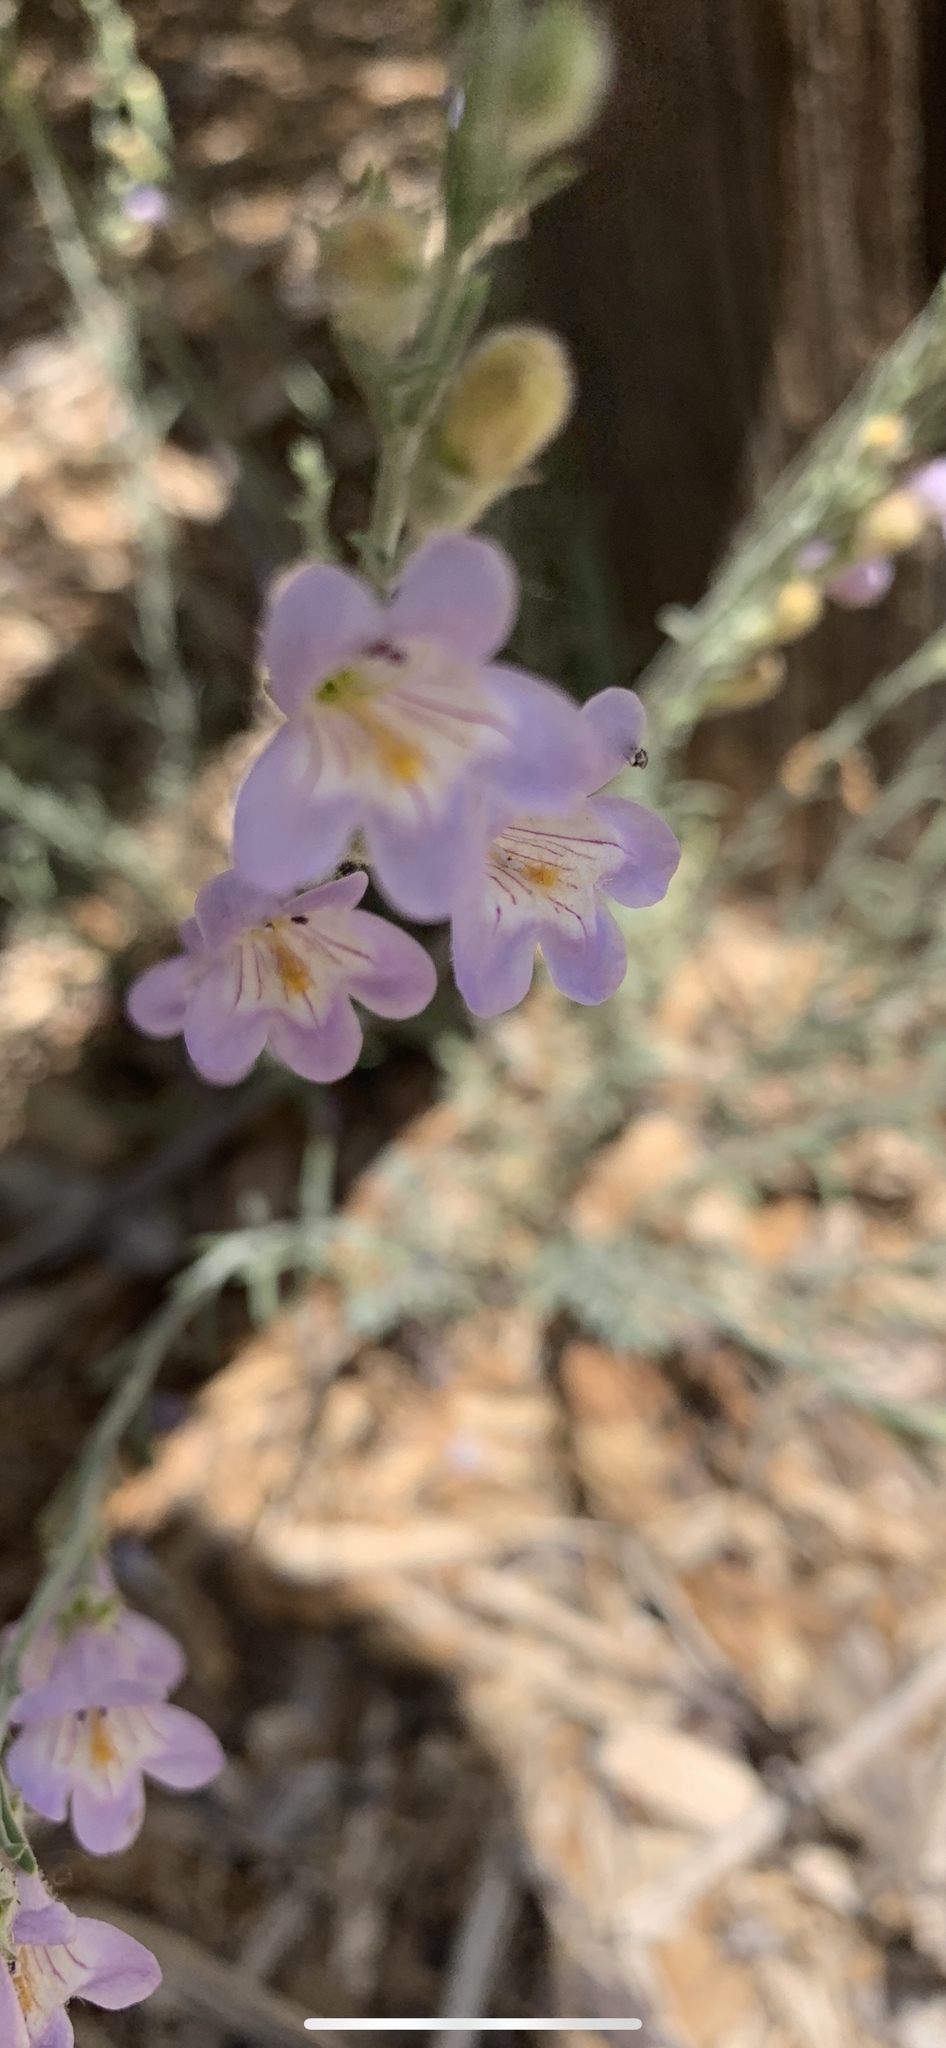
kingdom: Plantae
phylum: Tracheophyta
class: Magnoliopsida
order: Lamiales
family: Plantaginaceae
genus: Penstemon
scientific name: Penstemon linarioides
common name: Siler's penstemon
